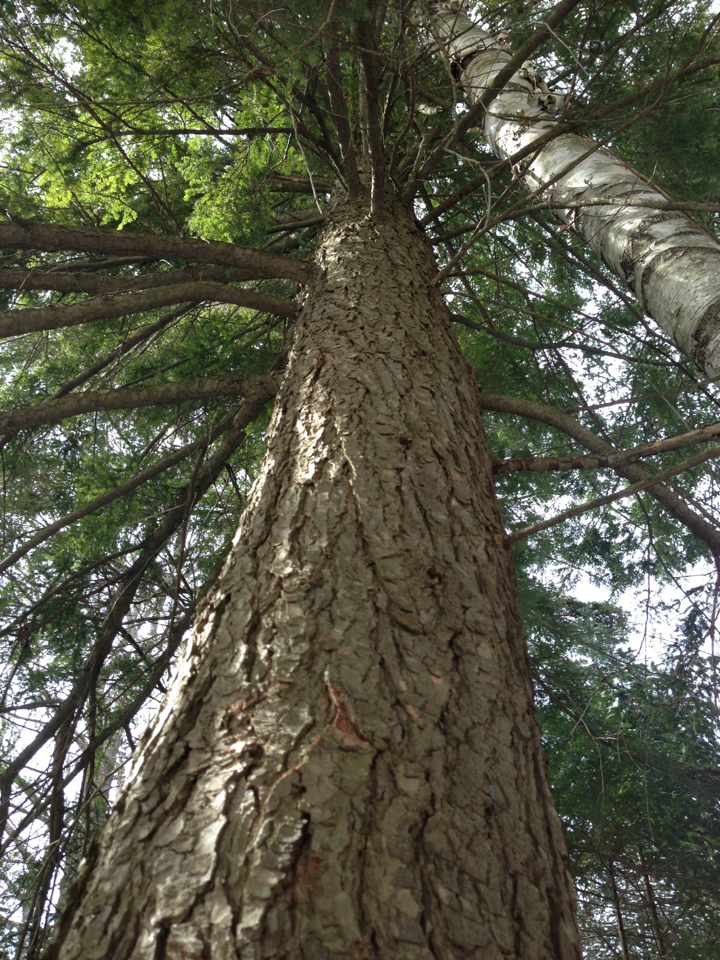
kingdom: Plantae
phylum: Tracheophyta
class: Pinopsida
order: Pinales
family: Pinaceae
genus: Tsuga
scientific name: Tsuga canadensis
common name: Eastern hemlock
